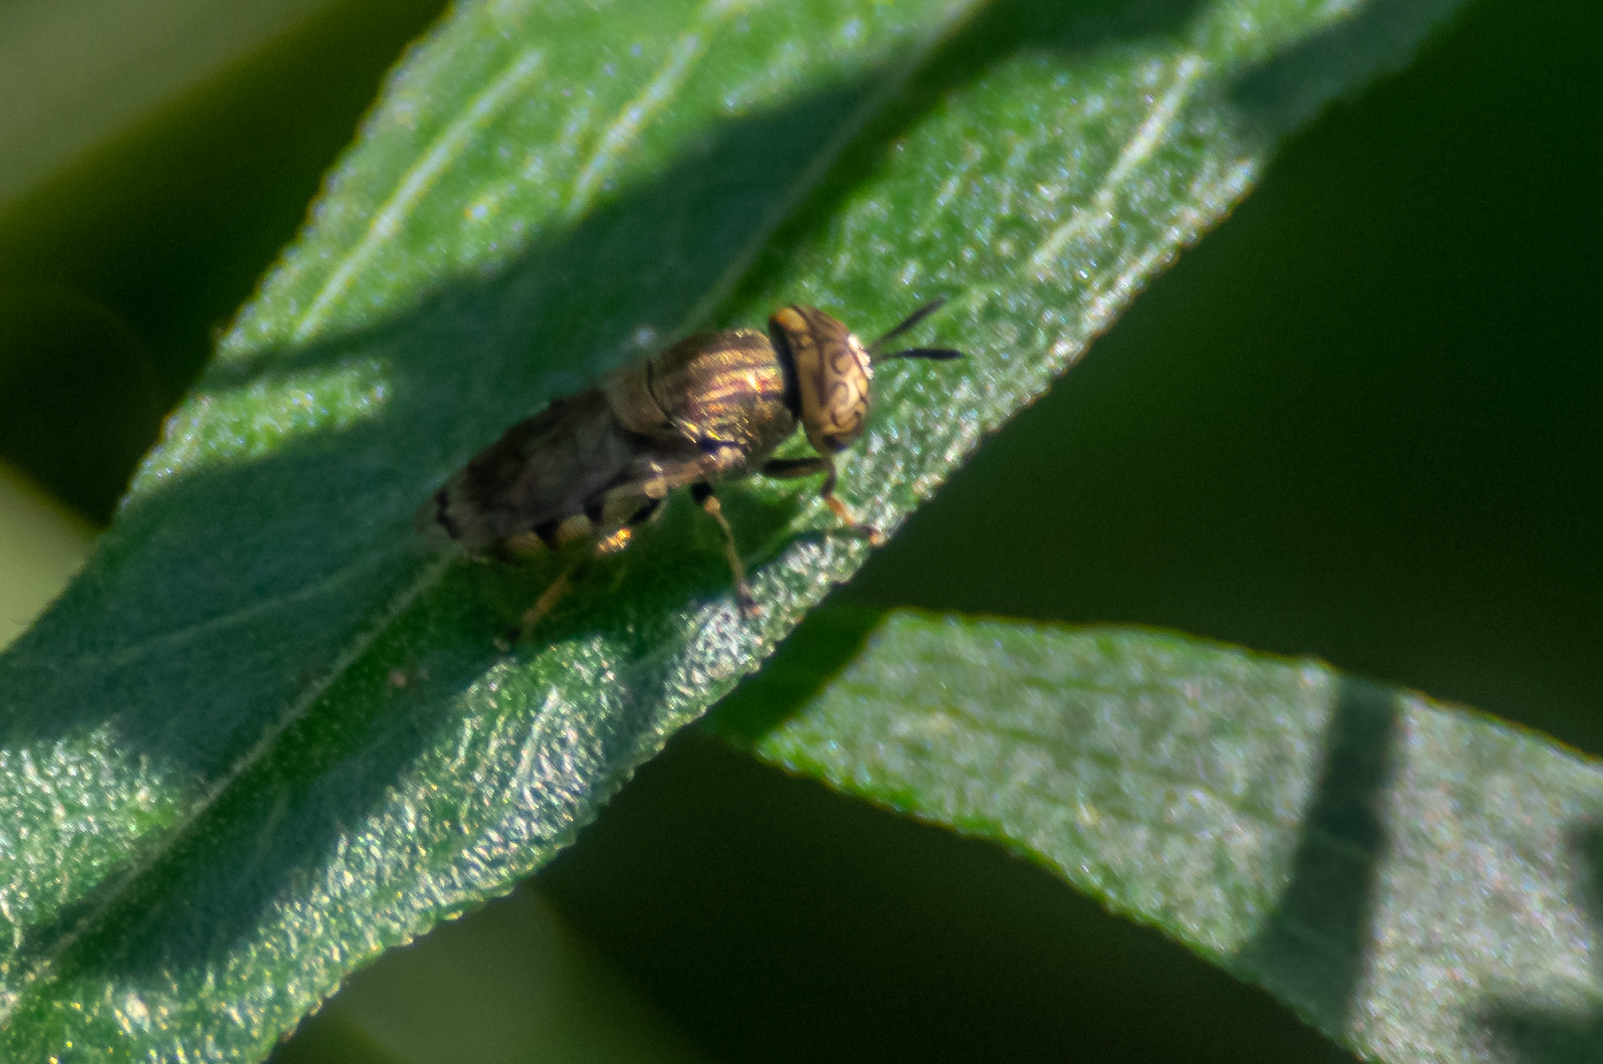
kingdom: Animalia
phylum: Arthropoda
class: Insecta
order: Diptera
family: Syrphidae
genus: Orthonevra
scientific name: Orthonevra nitida
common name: Wavy mucksucker
